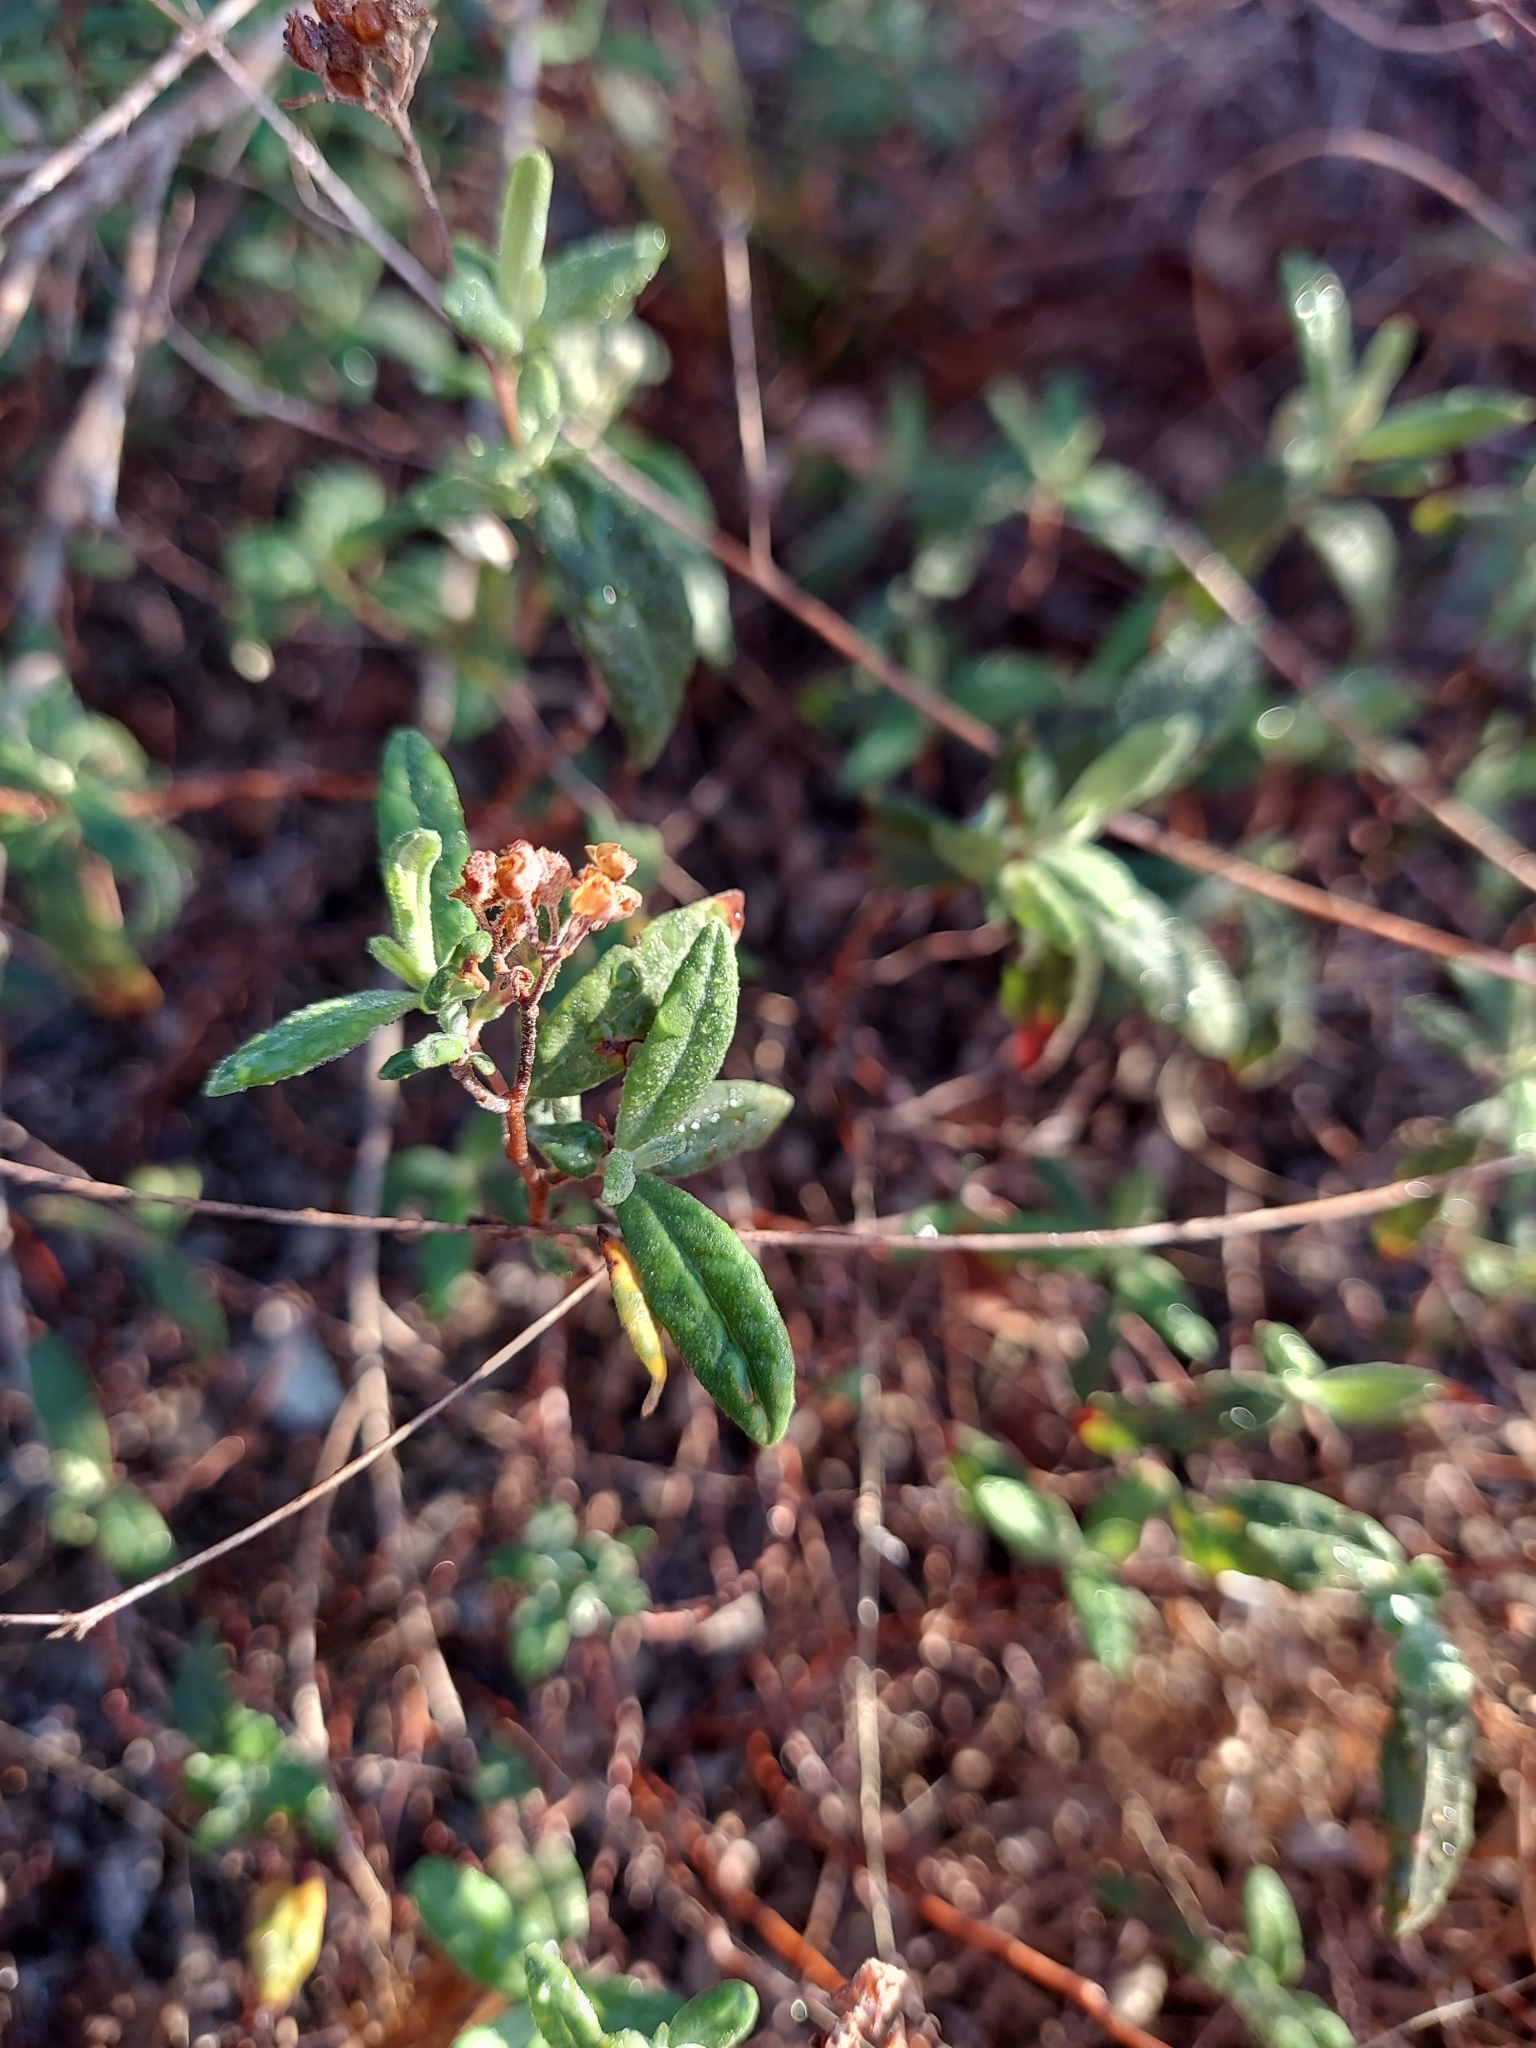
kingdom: Plantae
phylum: Tracheophyta
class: Magnoliopsida
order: Malvales
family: Cistaceae
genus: Crocanthemum
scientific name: Crocanthemum corymbosum
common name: Pinebarren sun-rose
